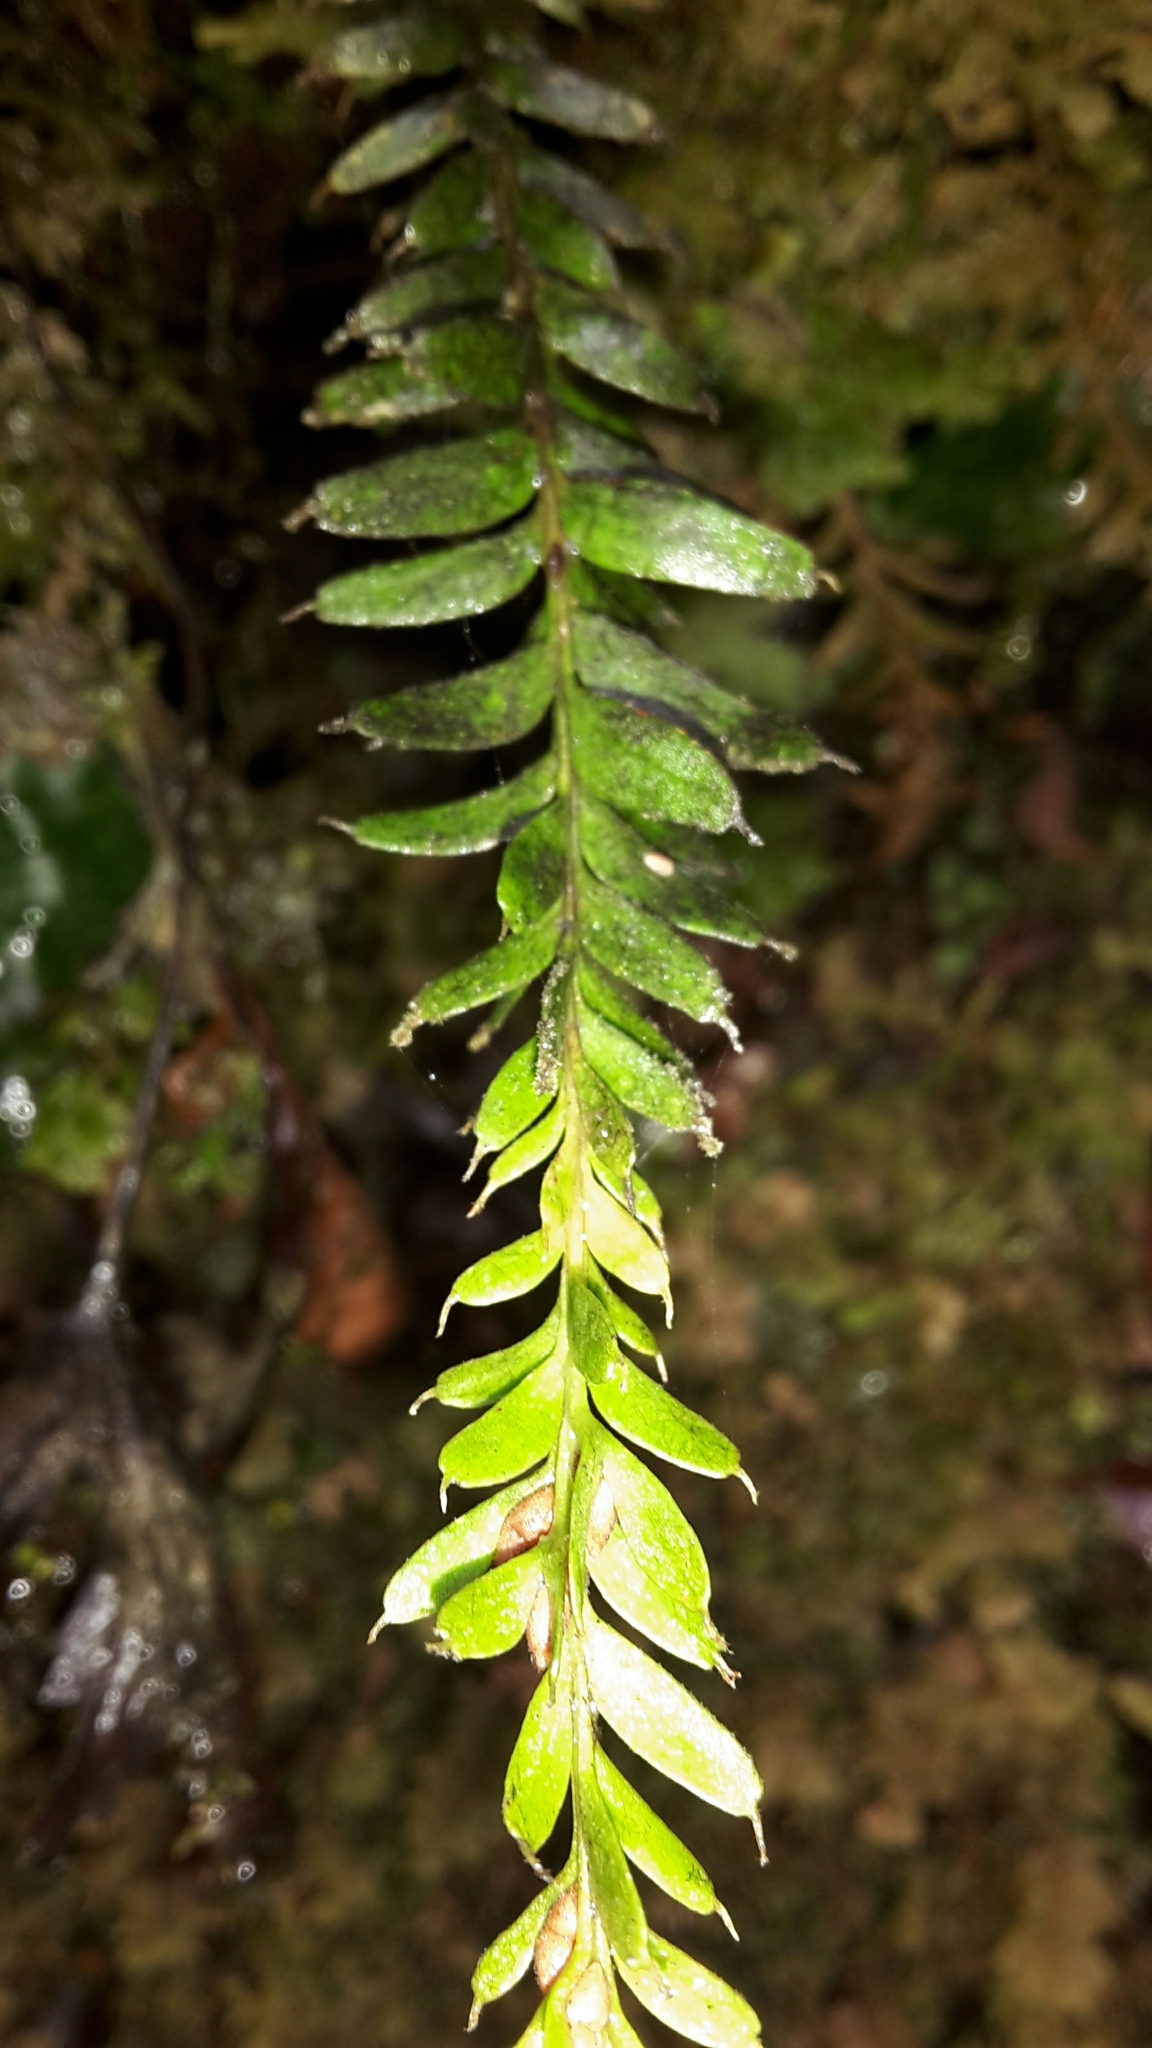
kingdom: Plantae
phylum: Tracheophyta
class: Polypodiopsida
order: Psilotales
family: Psilotaceae
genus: Tmesipteris
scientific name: Tmesipteris tannensis
